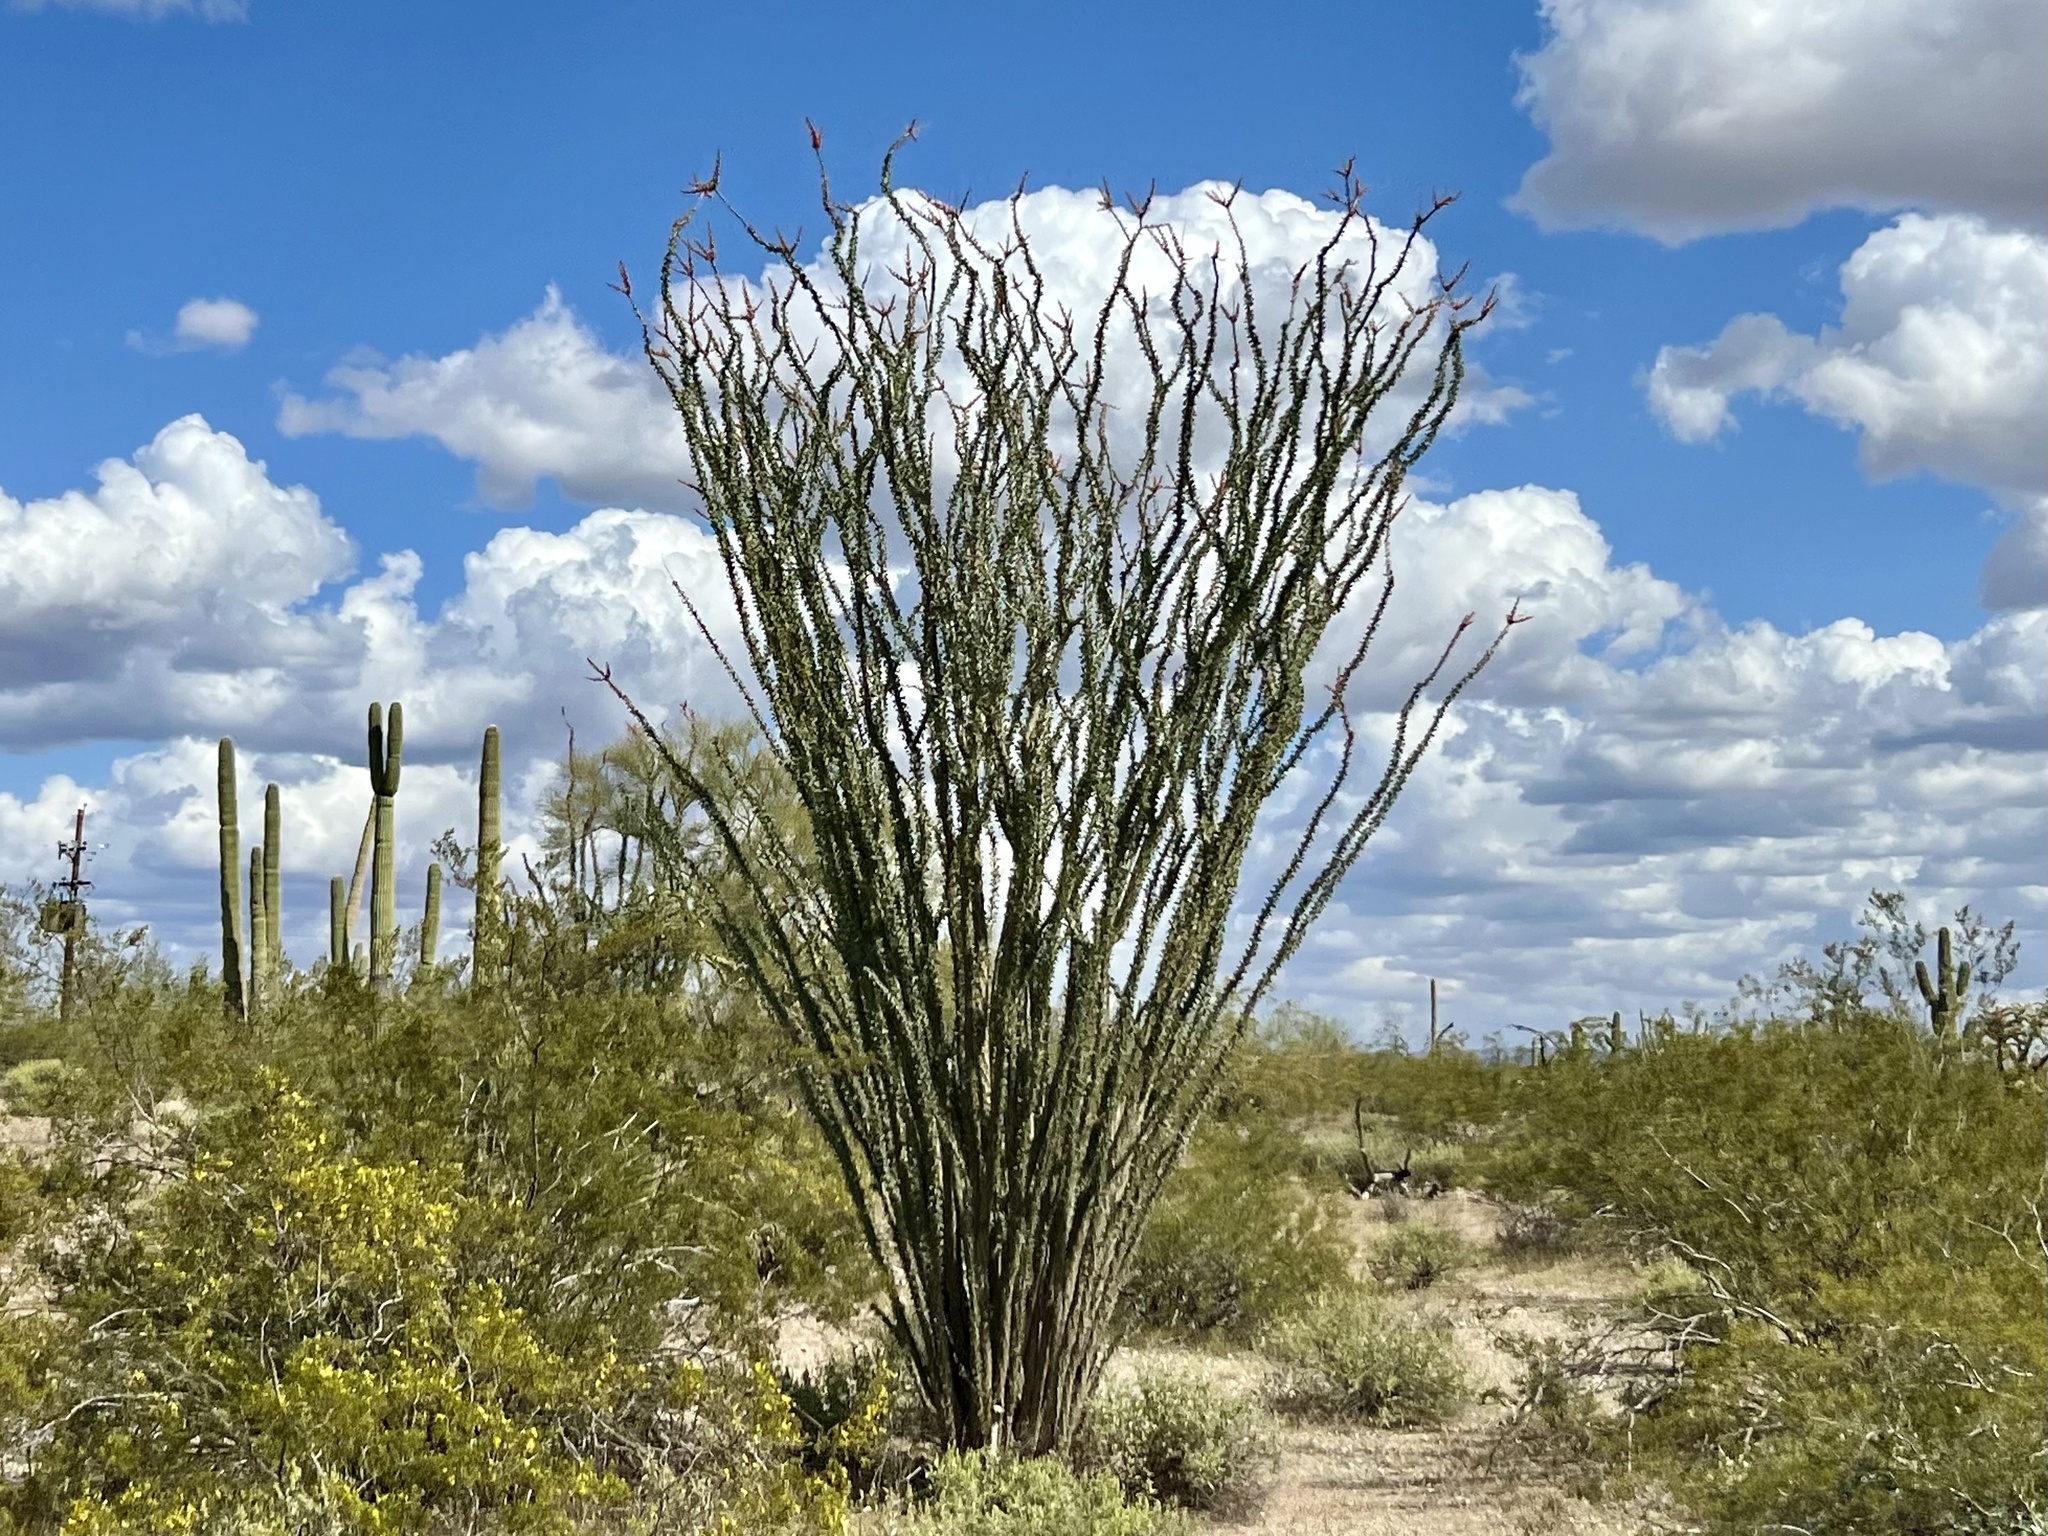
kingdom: Plantae
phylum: Tracheophyta
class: Magnoliopsida
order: Ericales
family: Fouquieriaceae
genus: Fouquieria
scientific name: Fouquieria splendens
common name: Vine-cactus
